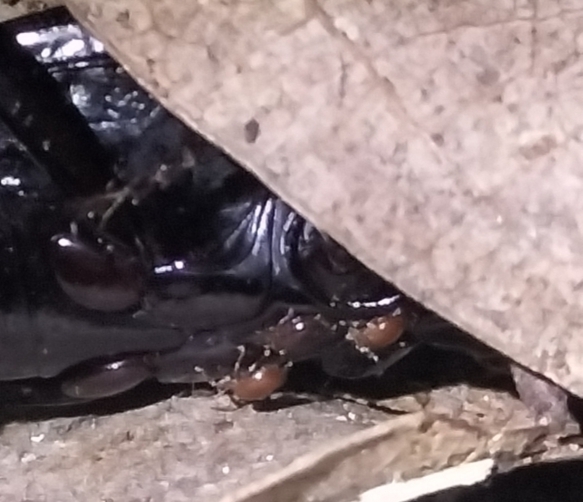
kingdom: Animalia
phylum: Arthropoda
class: Arachnida
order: Mesostigmata
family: Promegistidae
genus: Promegistus
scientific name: Promegistus
